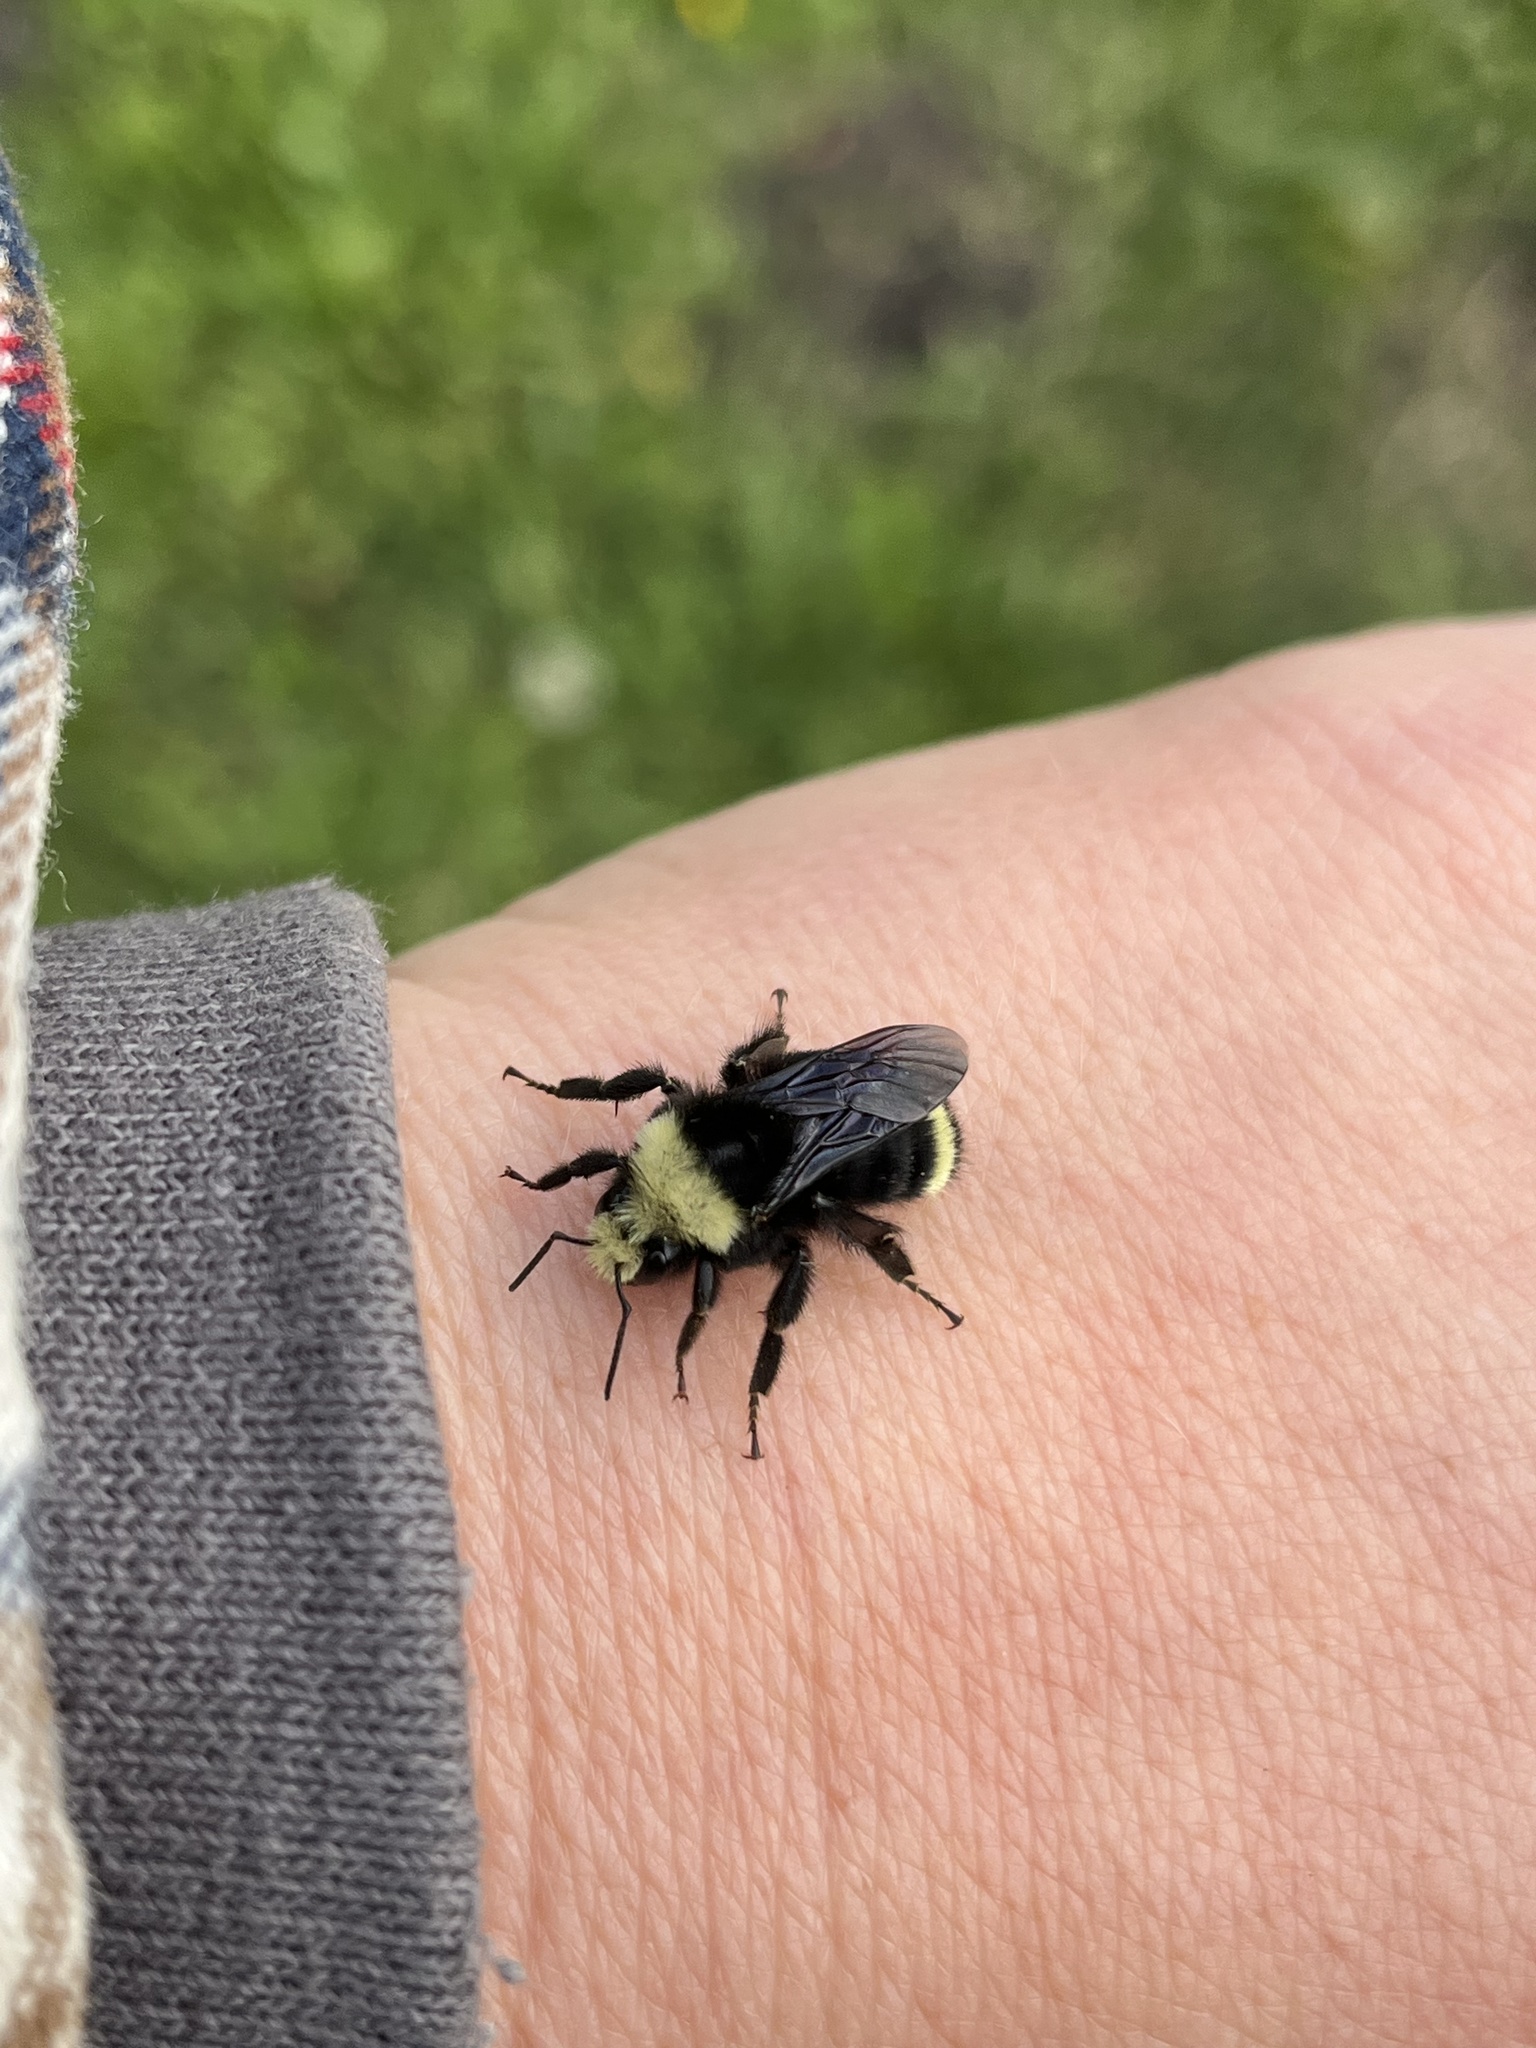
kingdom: Animalia
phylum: Arthropoda
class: Insecta
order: Hymenoptera
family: Apidae
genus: Bombus
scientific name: Bombus vosnesenskii
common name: Vosnesensky bumble bee
